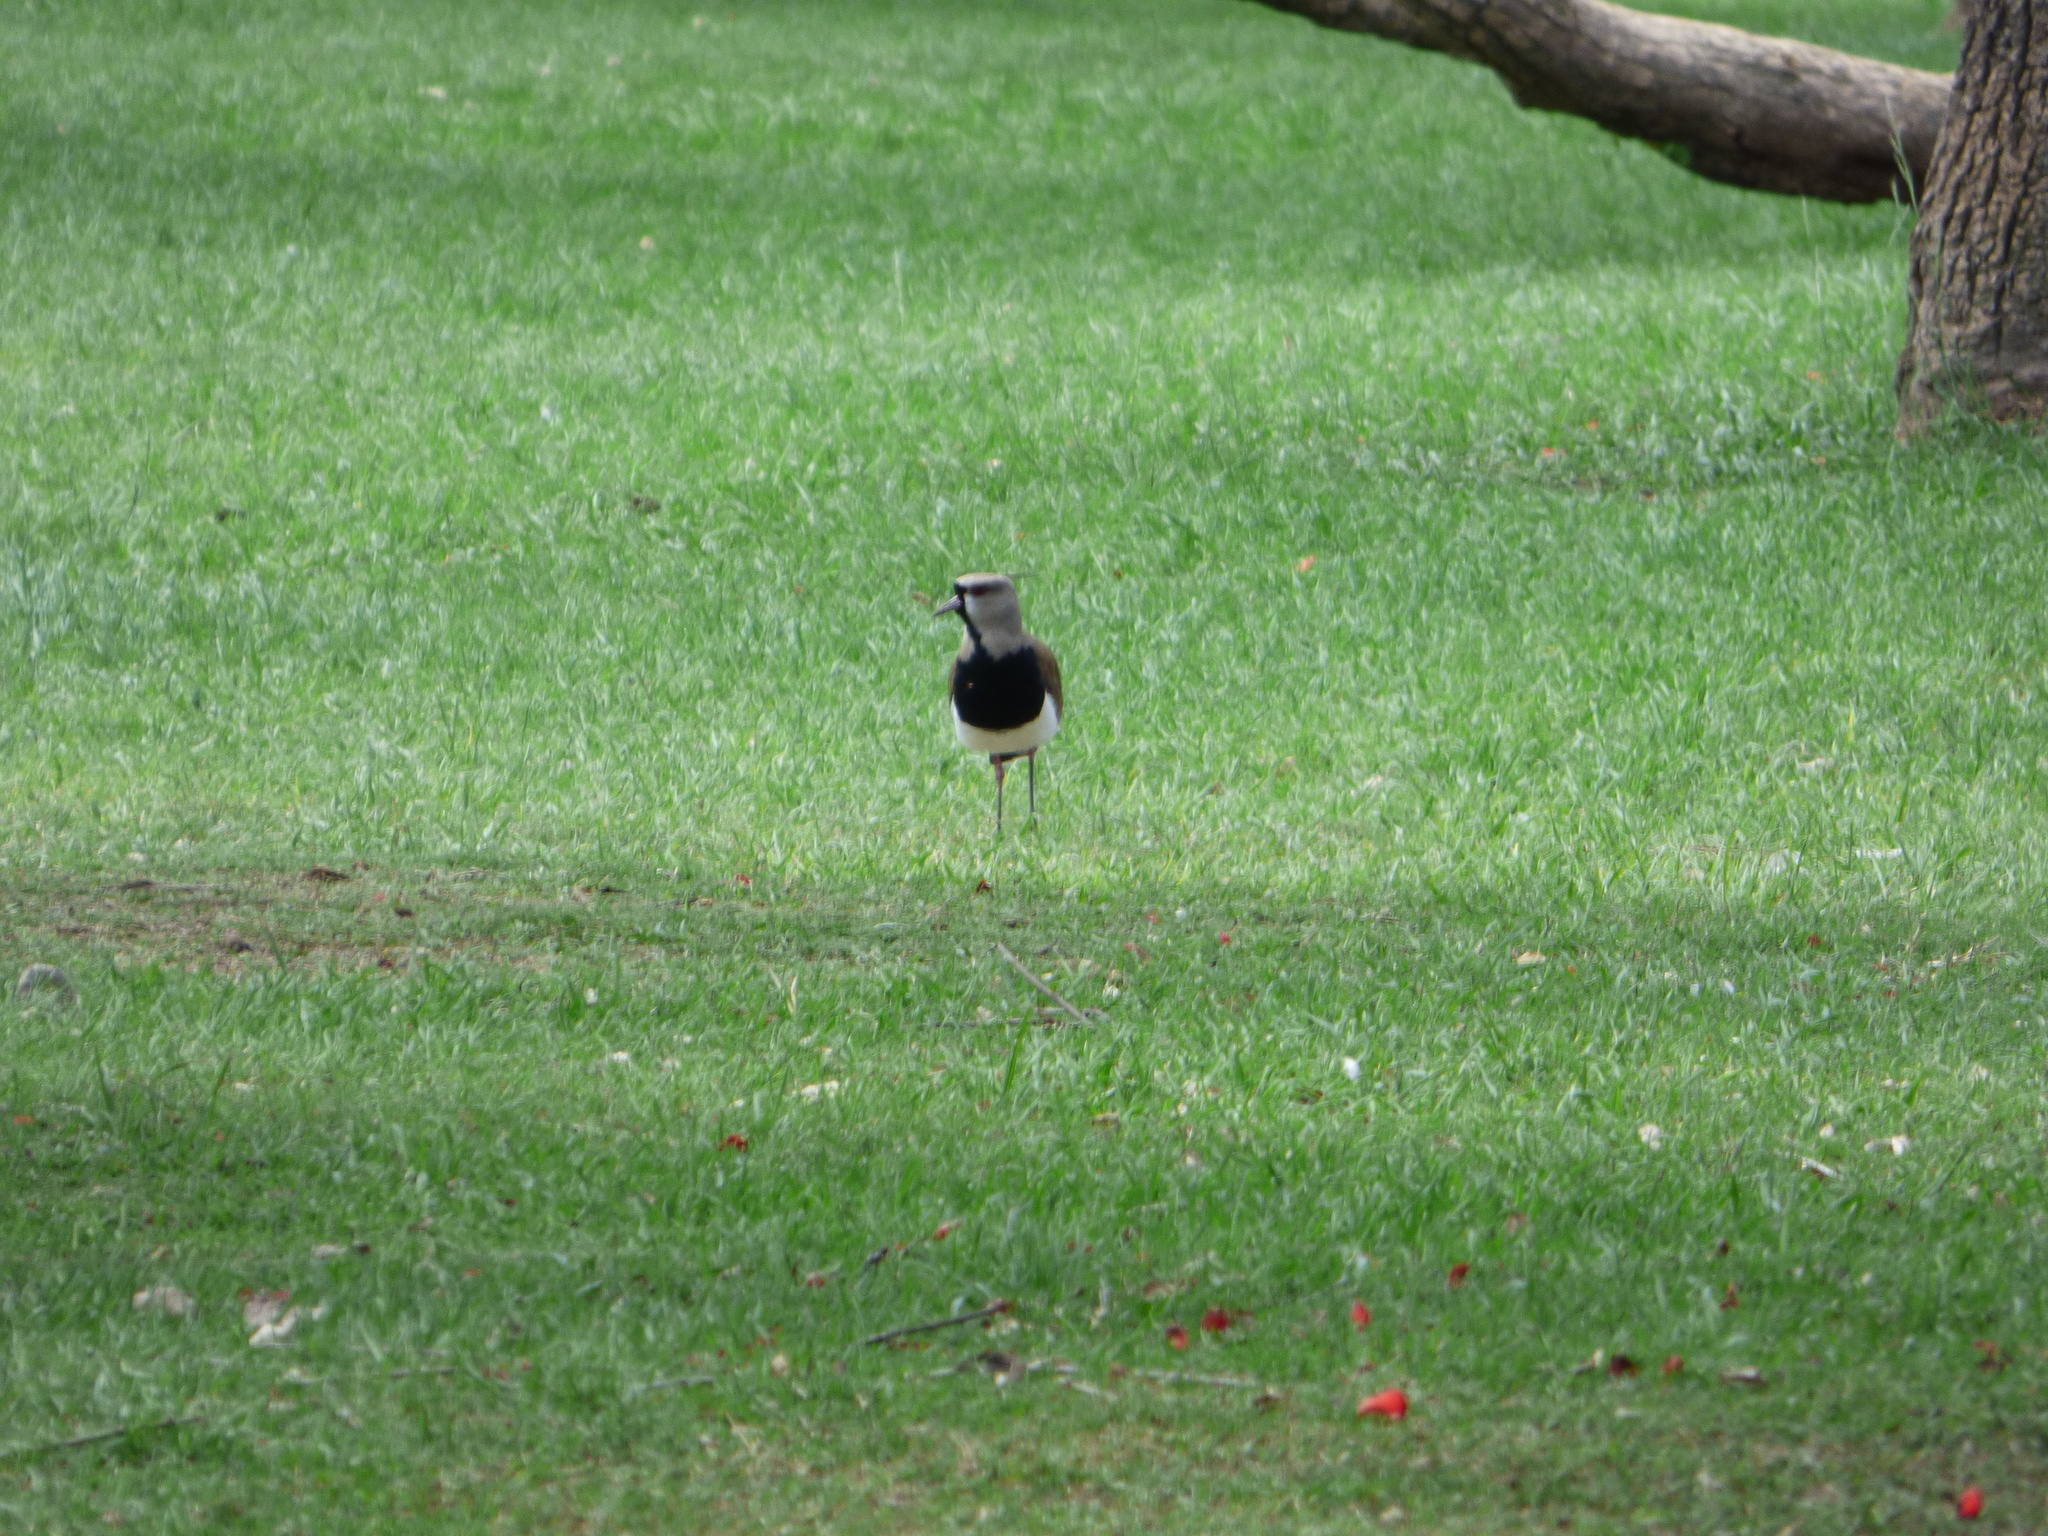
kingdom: Animalia
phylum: Chordata
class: Aves
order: Charadriiformes
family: Charadriidae
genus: Vanellus
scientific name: Vanellus chilensis
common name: Southern lapwing
